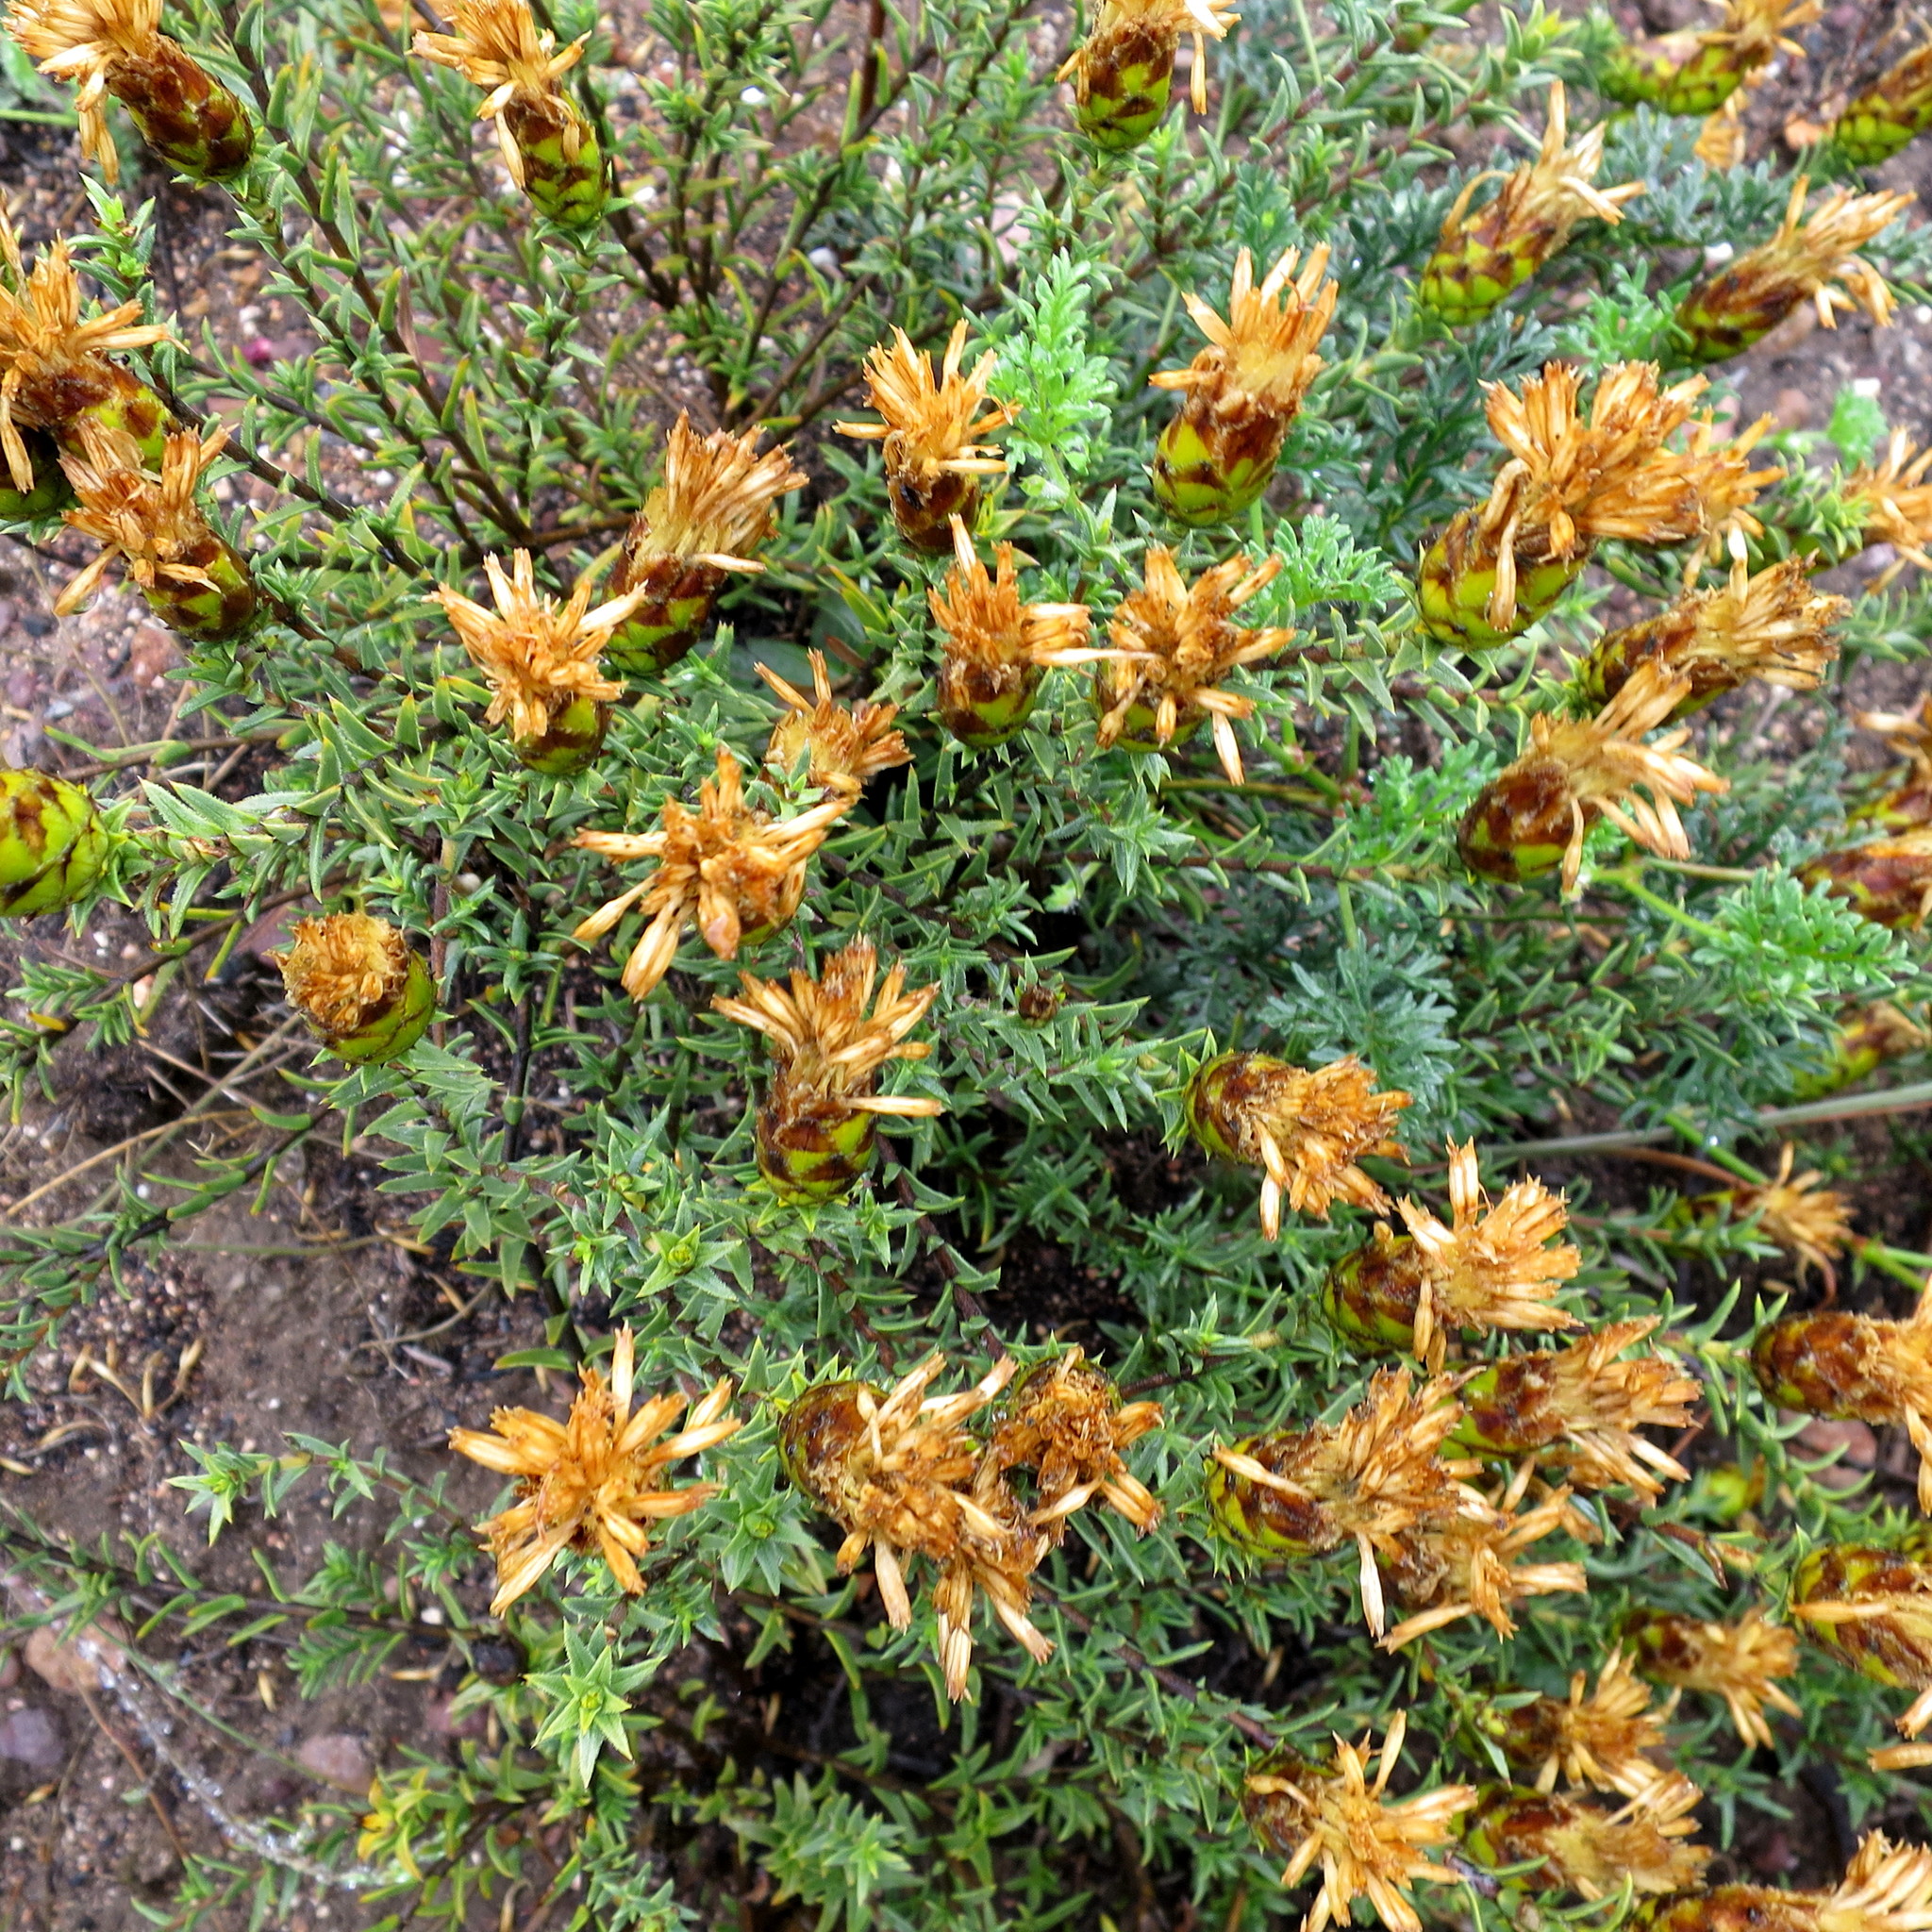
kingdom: Plantae
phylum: Tracheophyta
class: Magnoliopsida
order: Asterales
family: Asteraceae
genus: Pteronia
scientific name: Pteronia elongata
